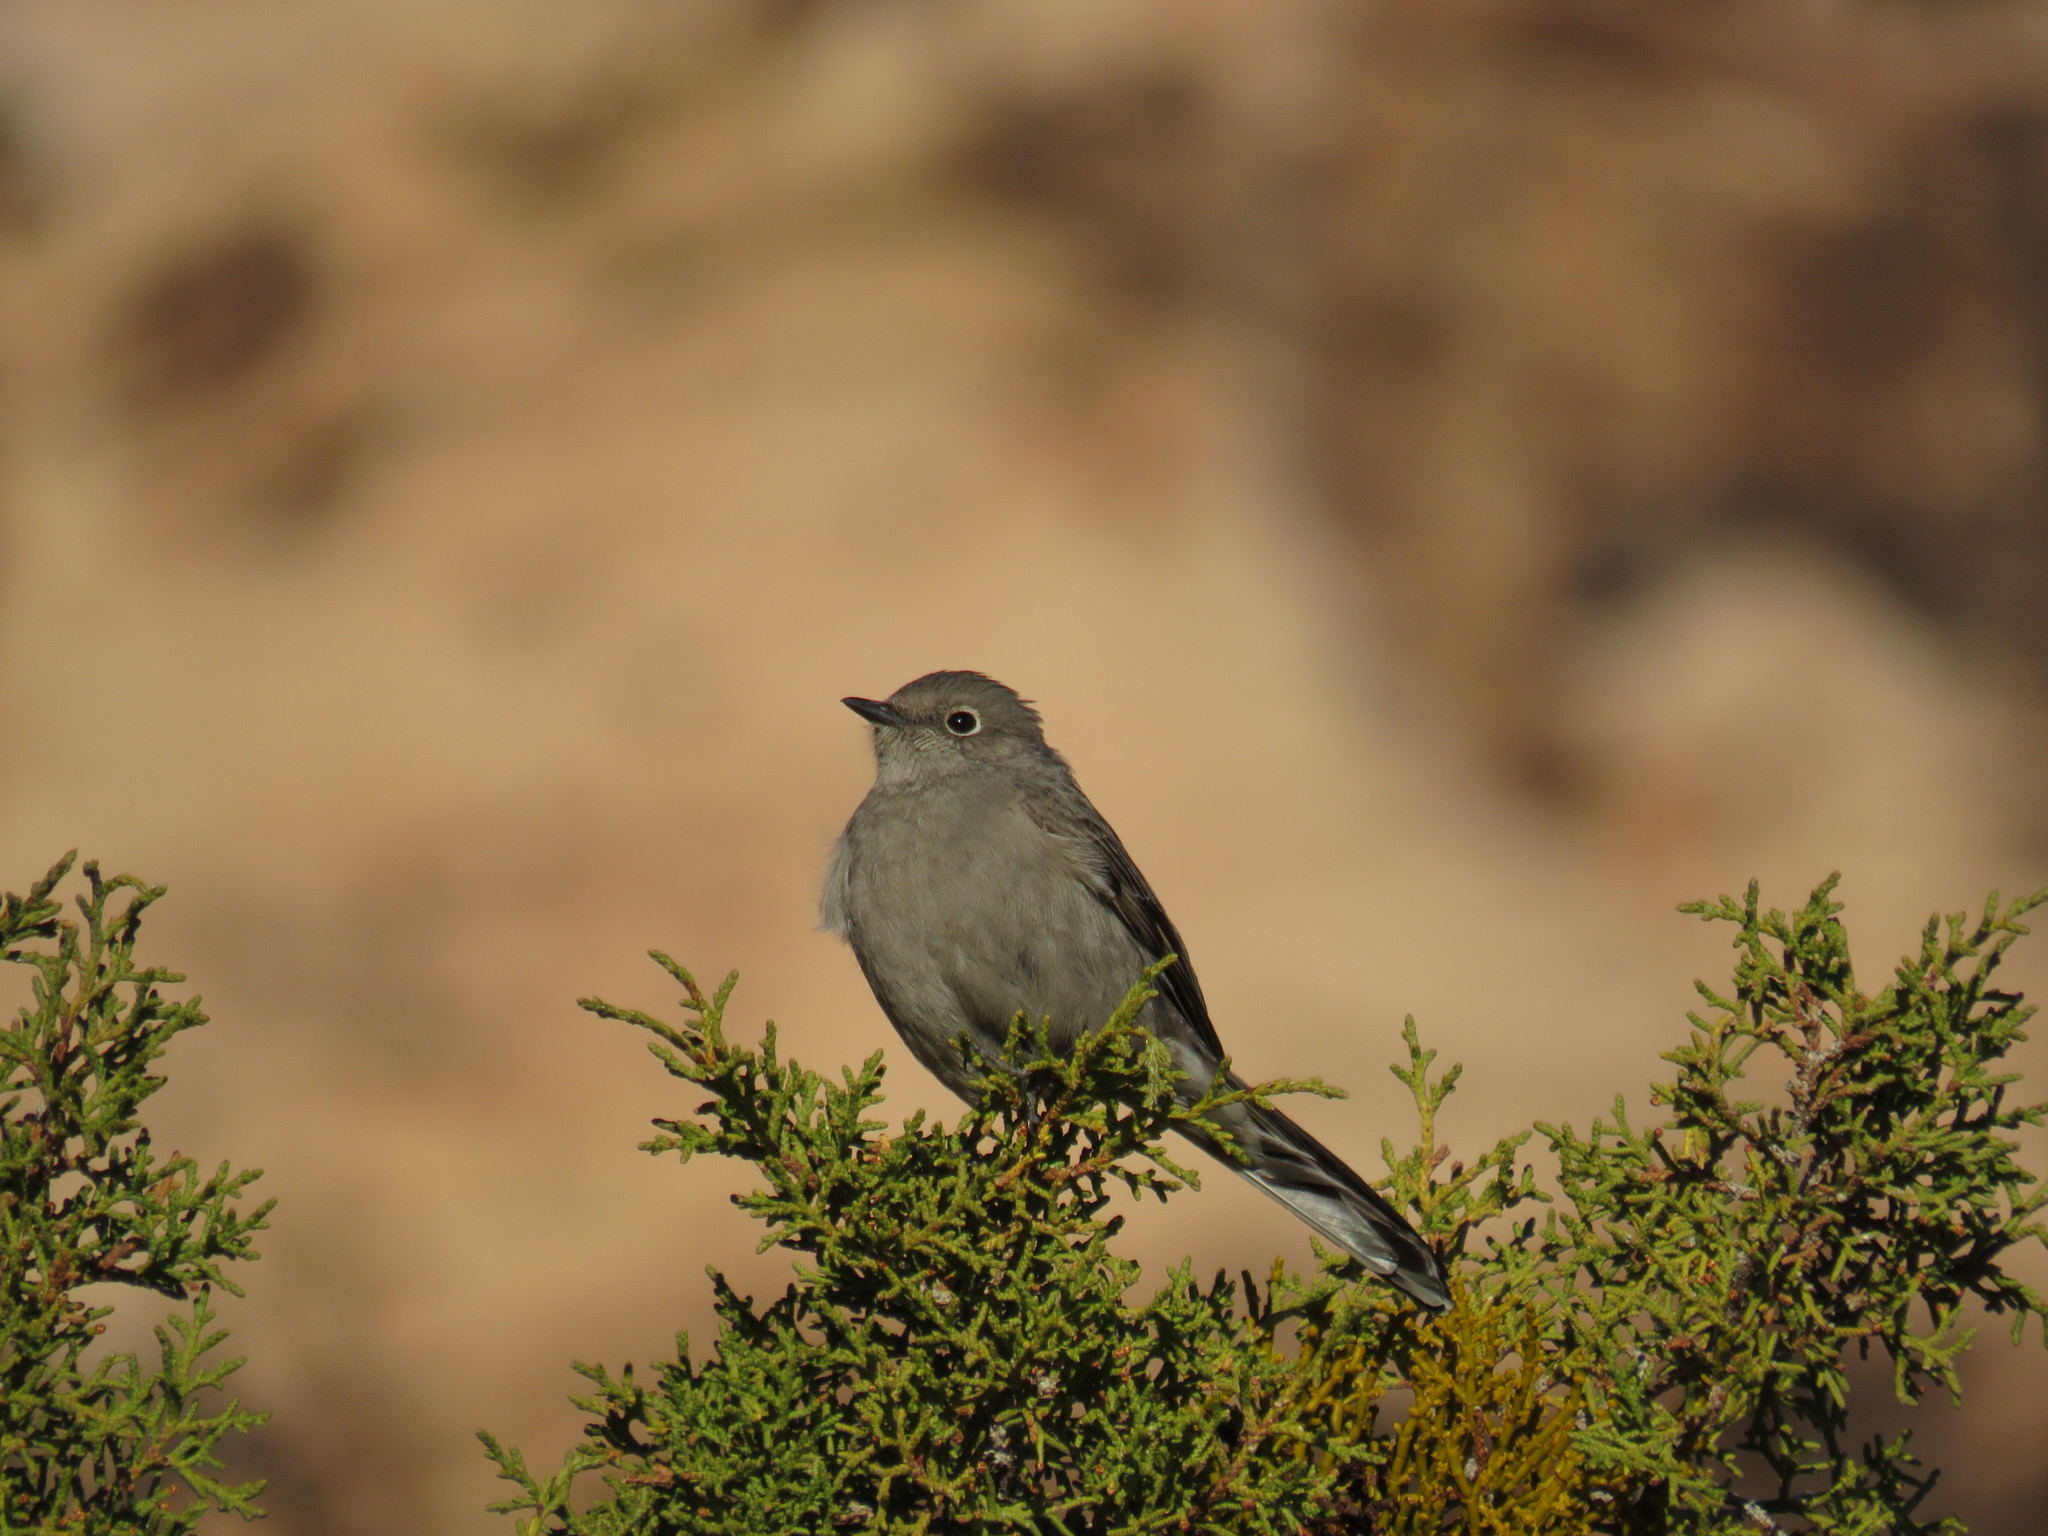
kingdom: Animalia
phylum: Chordata
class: Aves
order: Passeriformes
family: Turdidae
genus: Myadestes
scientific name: Myadestes townsendi
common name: Townsend's solitaire
